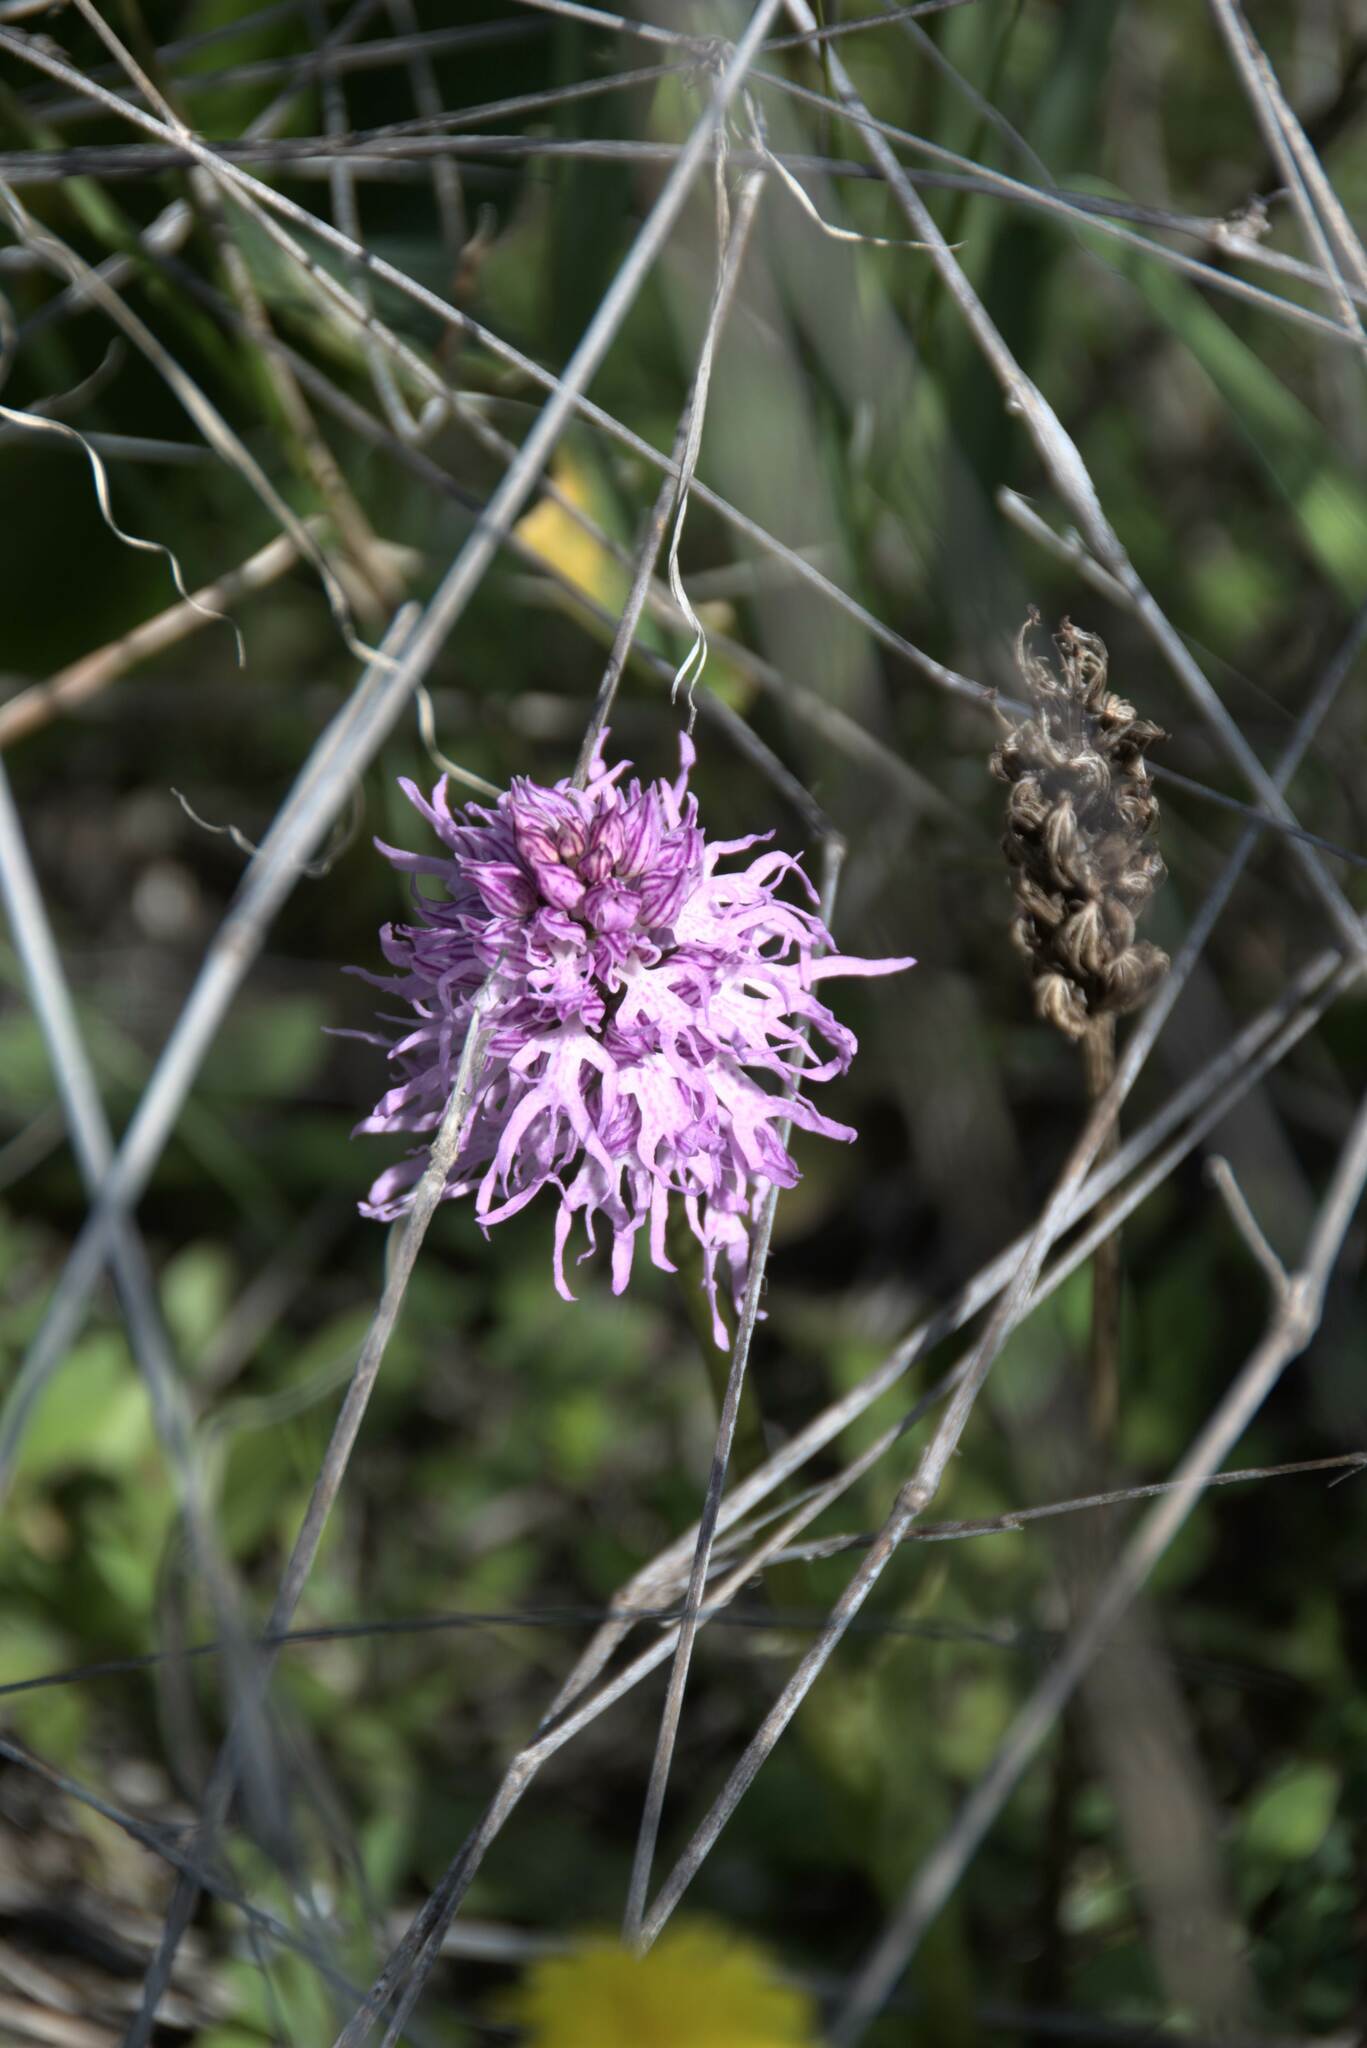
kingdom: Plantae
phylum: Tracheophyta
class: Liliopsida
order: Asparagales
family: Orchidaceae
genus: Orchis
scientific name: Orchis italica
